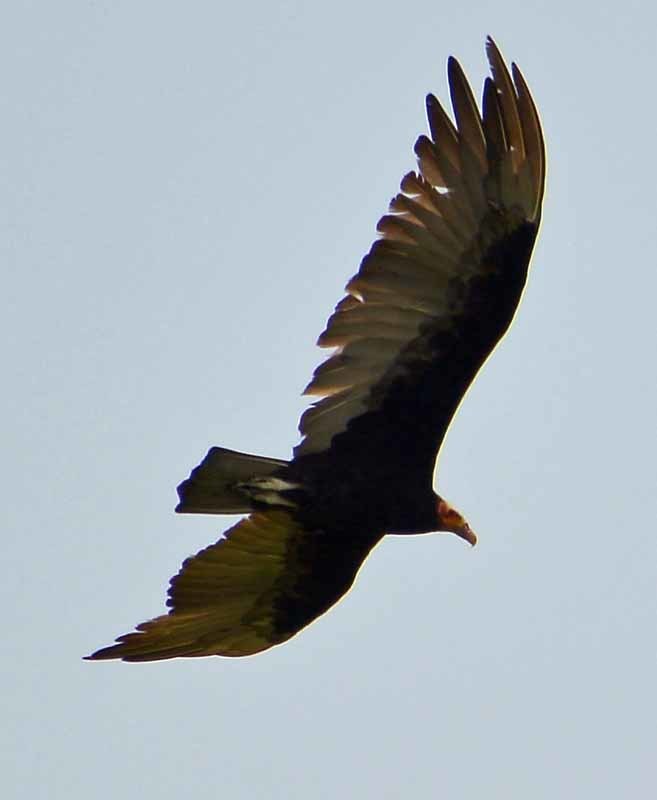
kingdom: Animalia
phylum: Chordata
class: Aves
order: Accipitriformes
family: Cathartidae
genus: Cathartes
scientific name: Cathartes aura
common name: Turkey vulture
